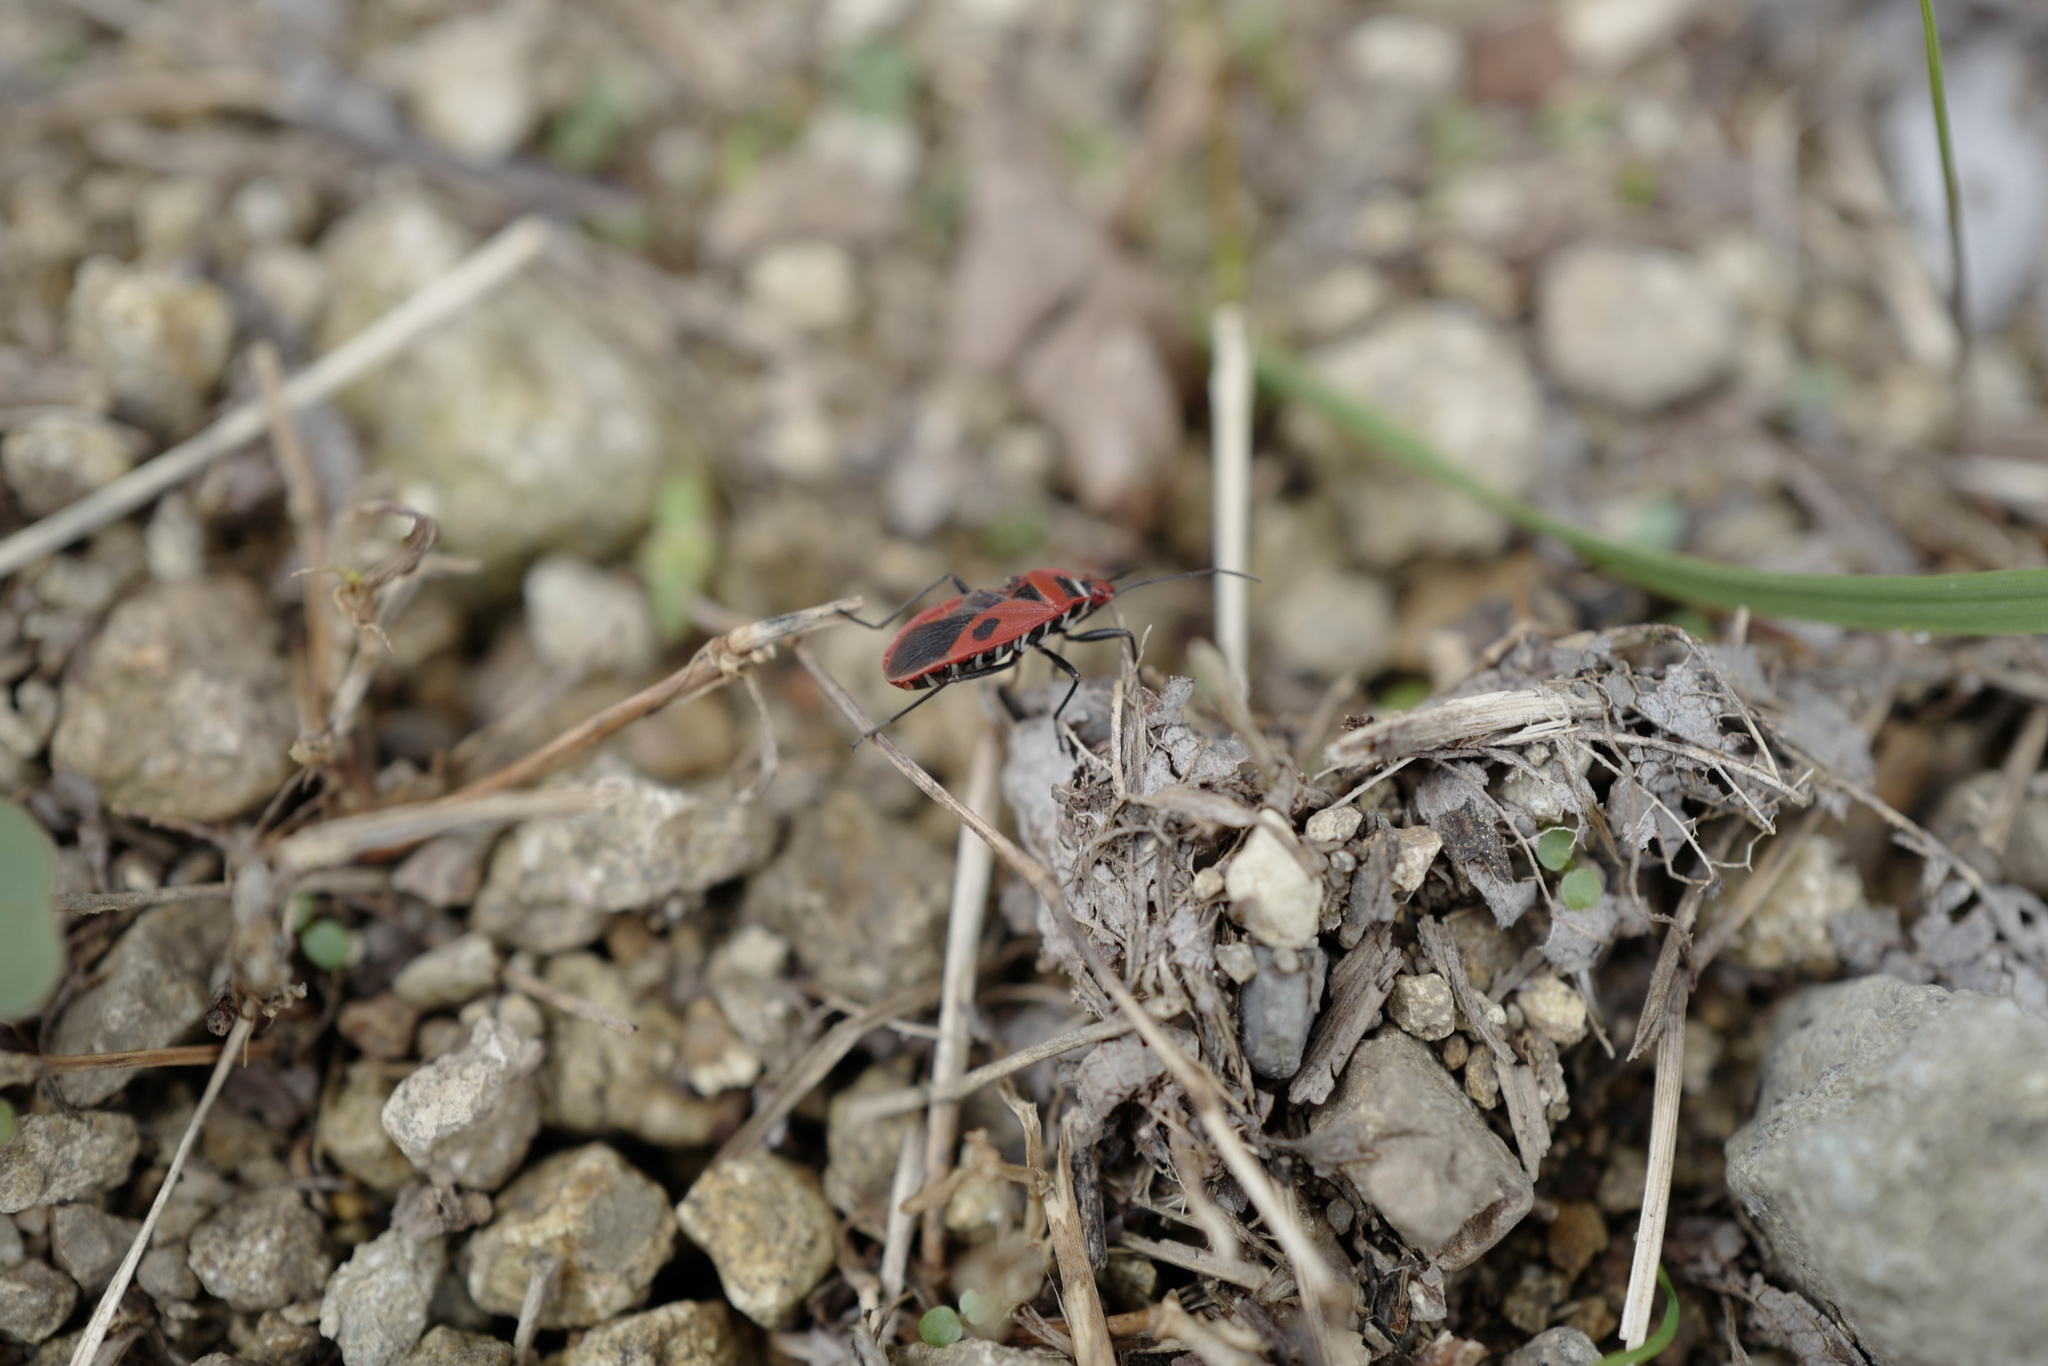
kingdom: Animalia
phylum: Arthropoda
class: Insecta
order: Hemiptera
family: Pyrrhocoridae
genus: Pyrrhopeplus
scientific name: Pyrrhopeplus carduelis
